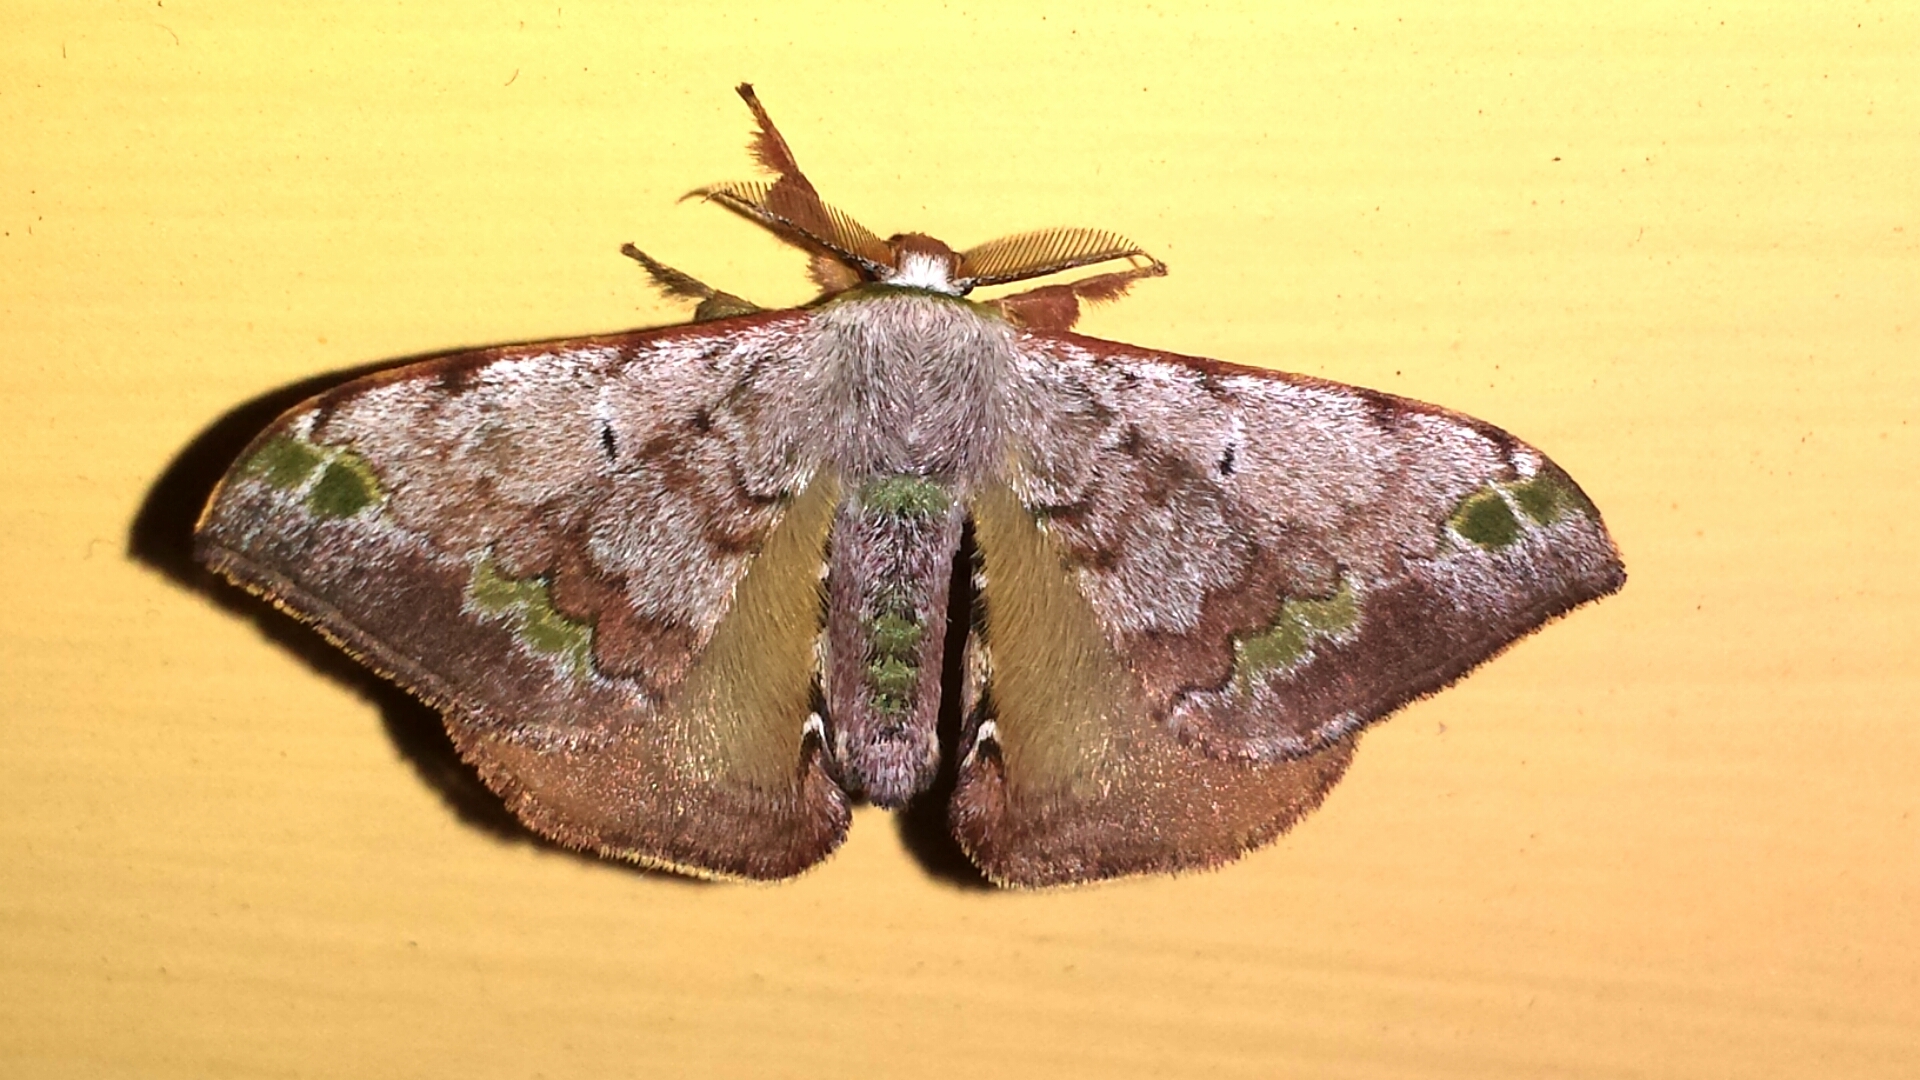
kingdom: Animalia
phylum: Arthropoda
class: Insecta
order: Lepidoptera
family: Bombycidae
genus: Anticla
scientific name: Anticla antica
